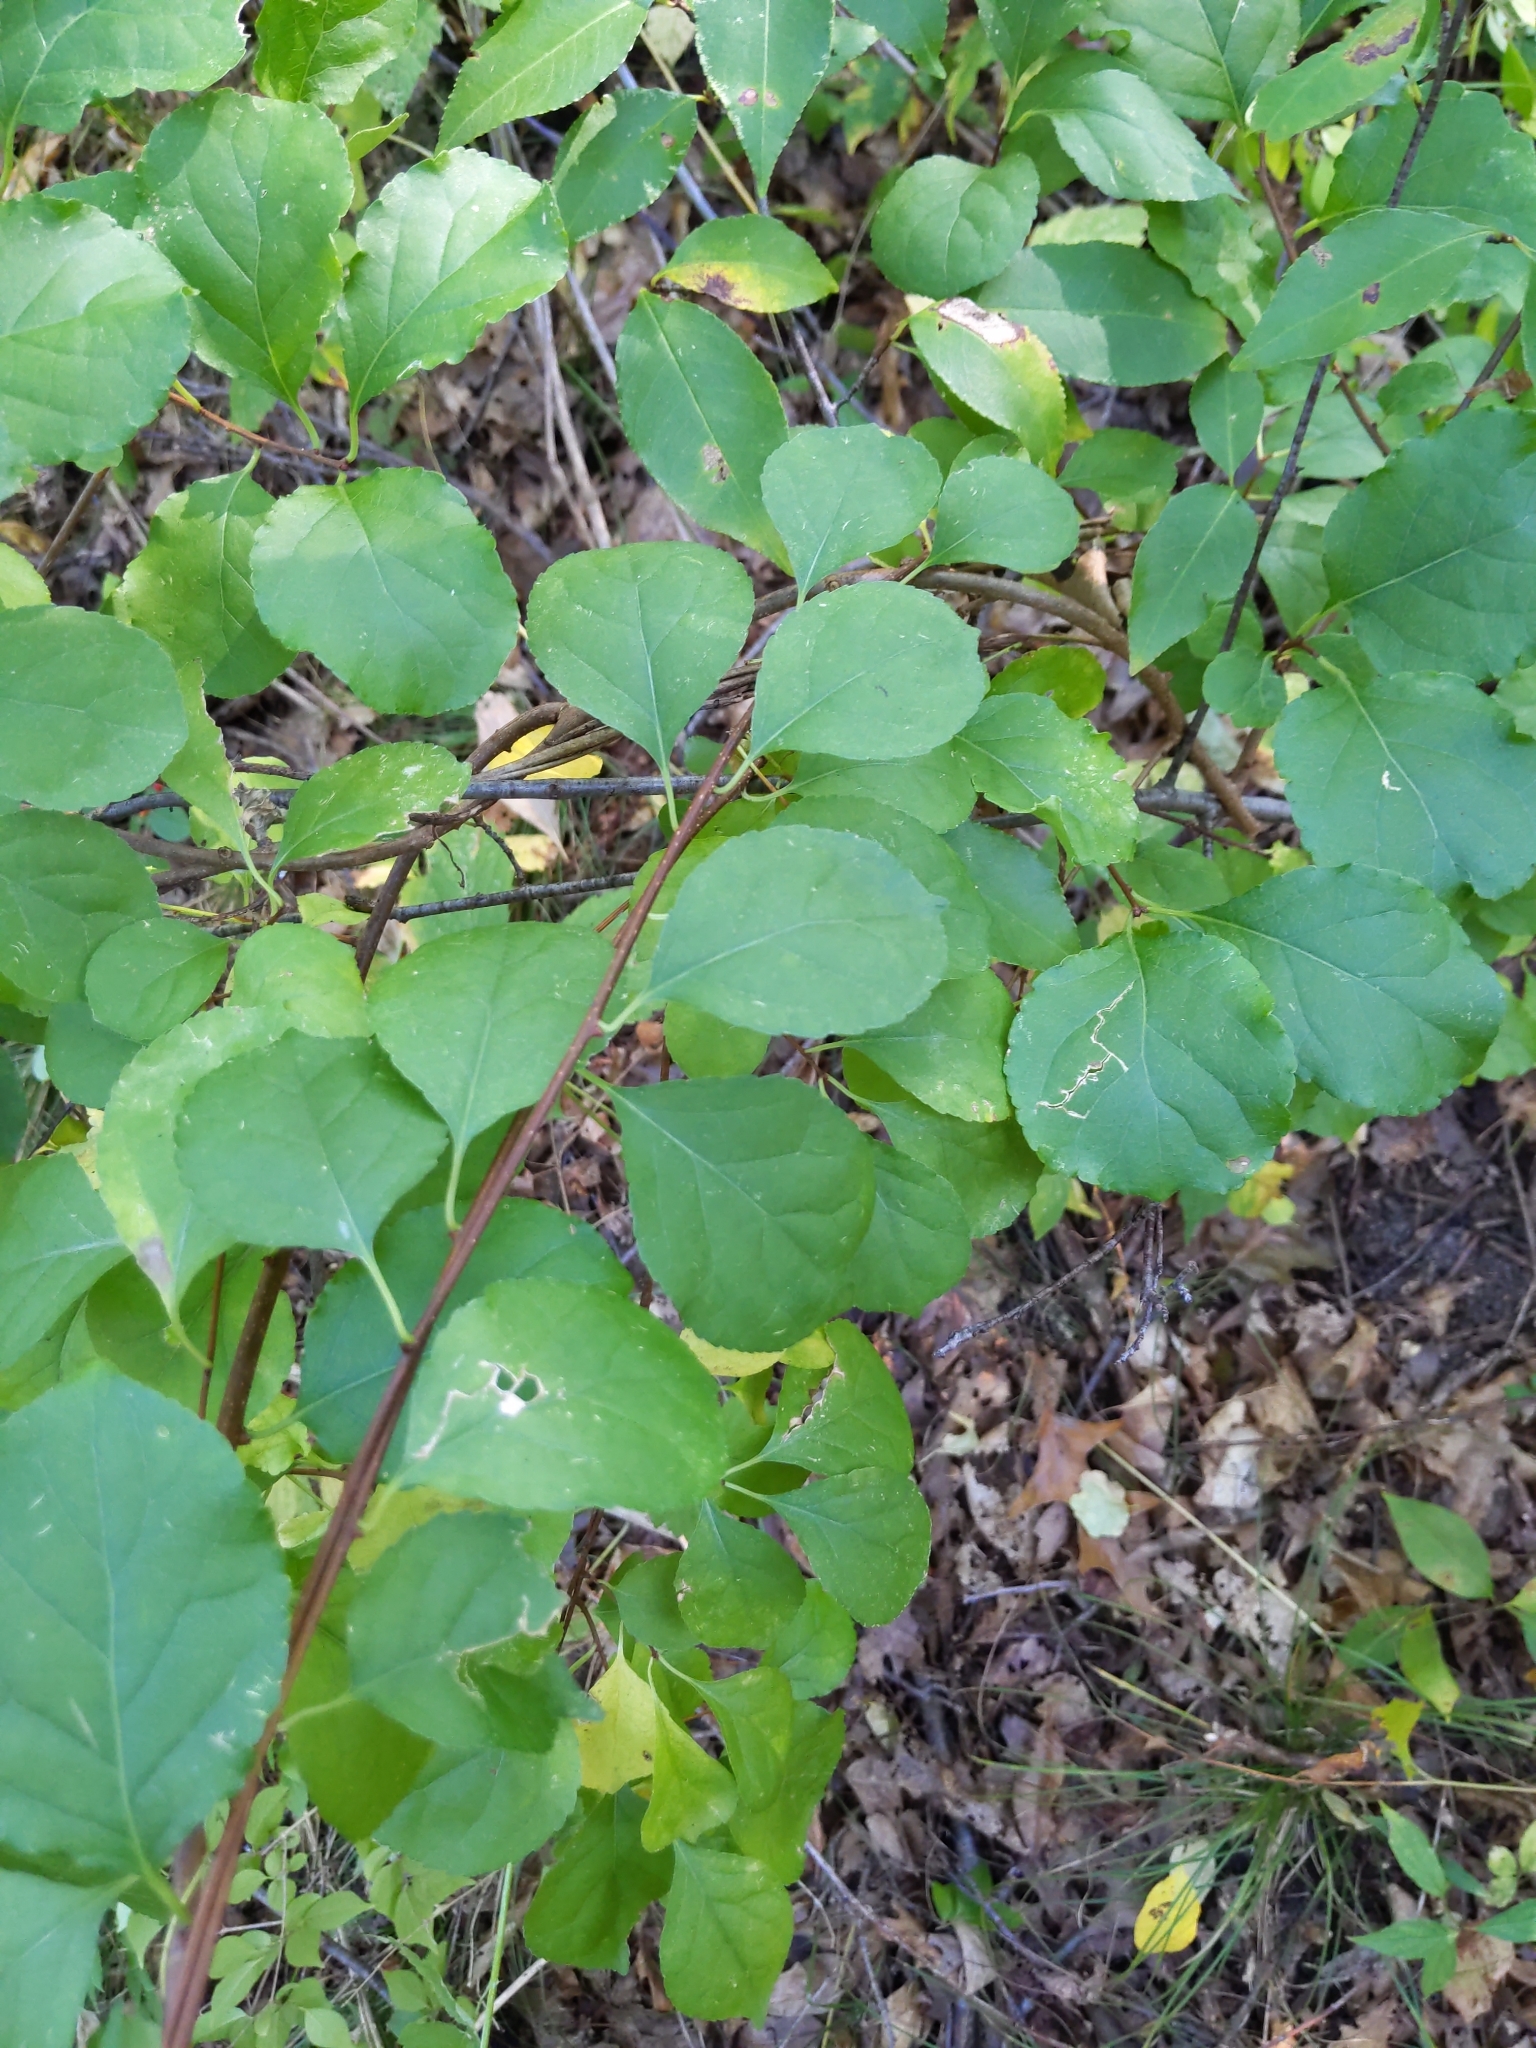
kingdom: Plantae
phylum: Tracheophyta
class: Magnoliopsida
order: Celastrales
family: Celastraceae
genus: Celastrus
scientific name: Celastrus orbiculatus
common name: Oriental bittersweet
